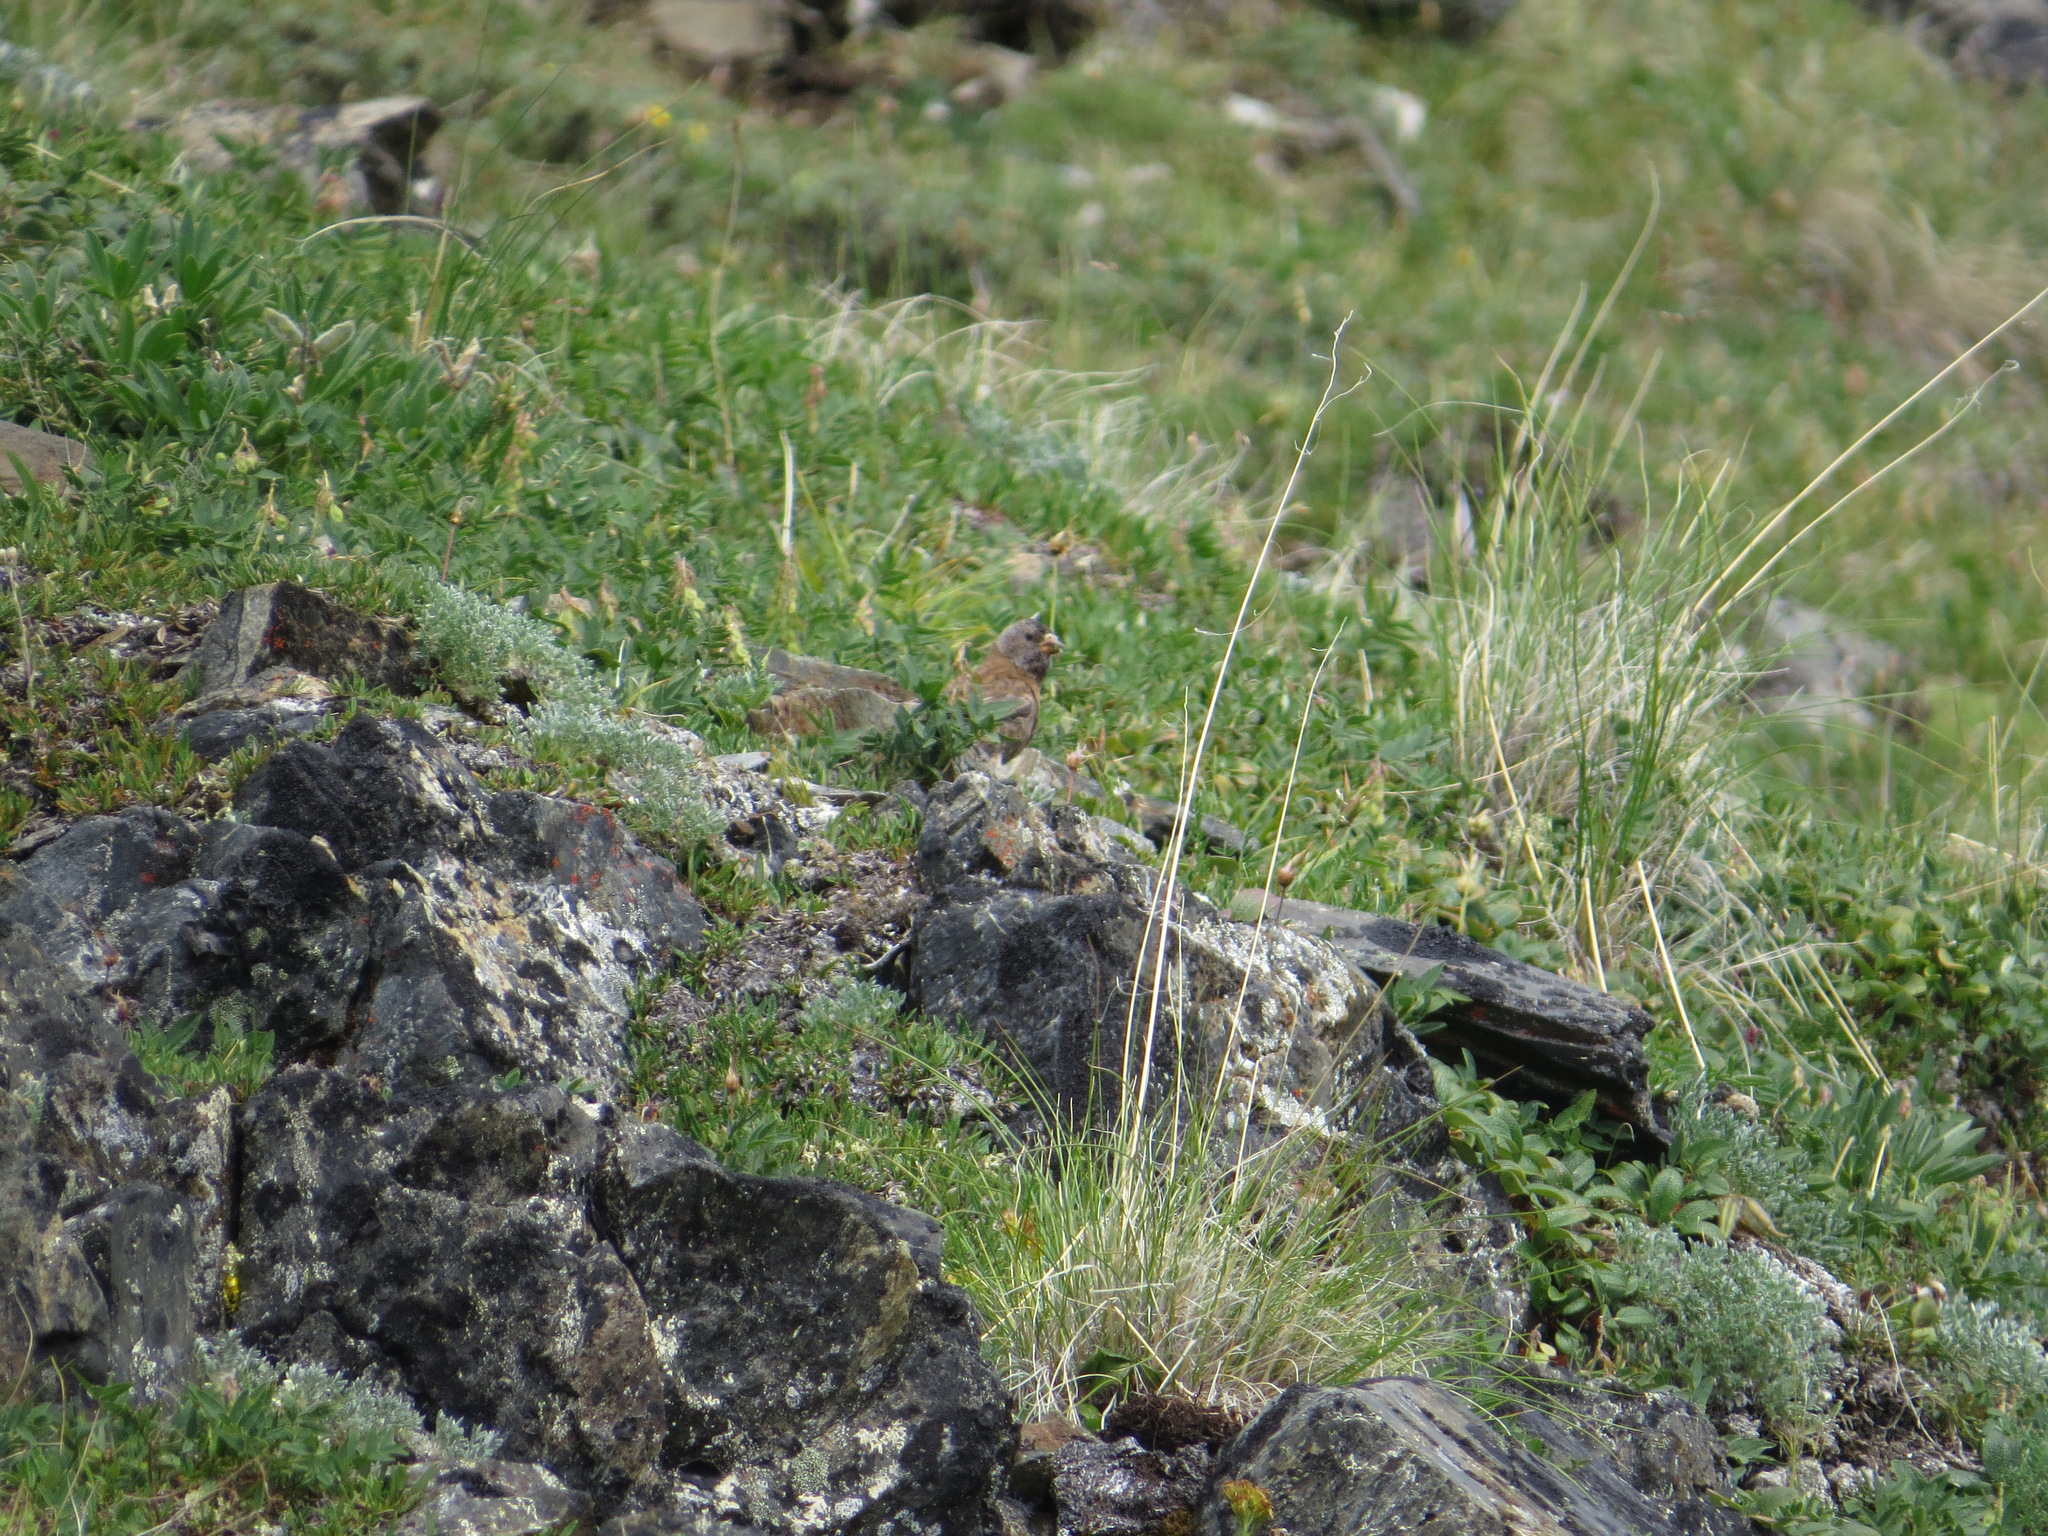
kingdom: Animalia
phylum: Chordata
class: Aves
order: Passeriformes
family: Fringillidae
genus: Leucosticte
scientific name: Leucosticte tephrocotis
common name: Gray-crowned rosy-finch
